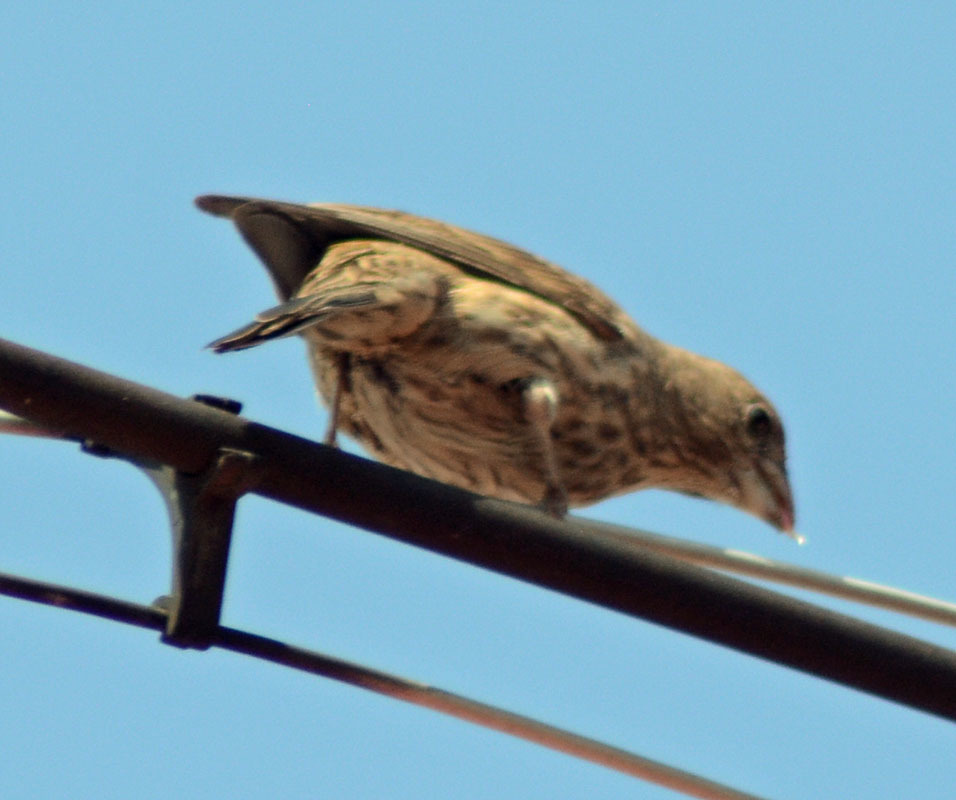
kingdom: Animalia
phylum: Chordata
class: Aves
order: Passeriformes
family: Fringillidae
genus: Haemorhous
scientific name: Haemorhous mexicanus
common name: House finch
